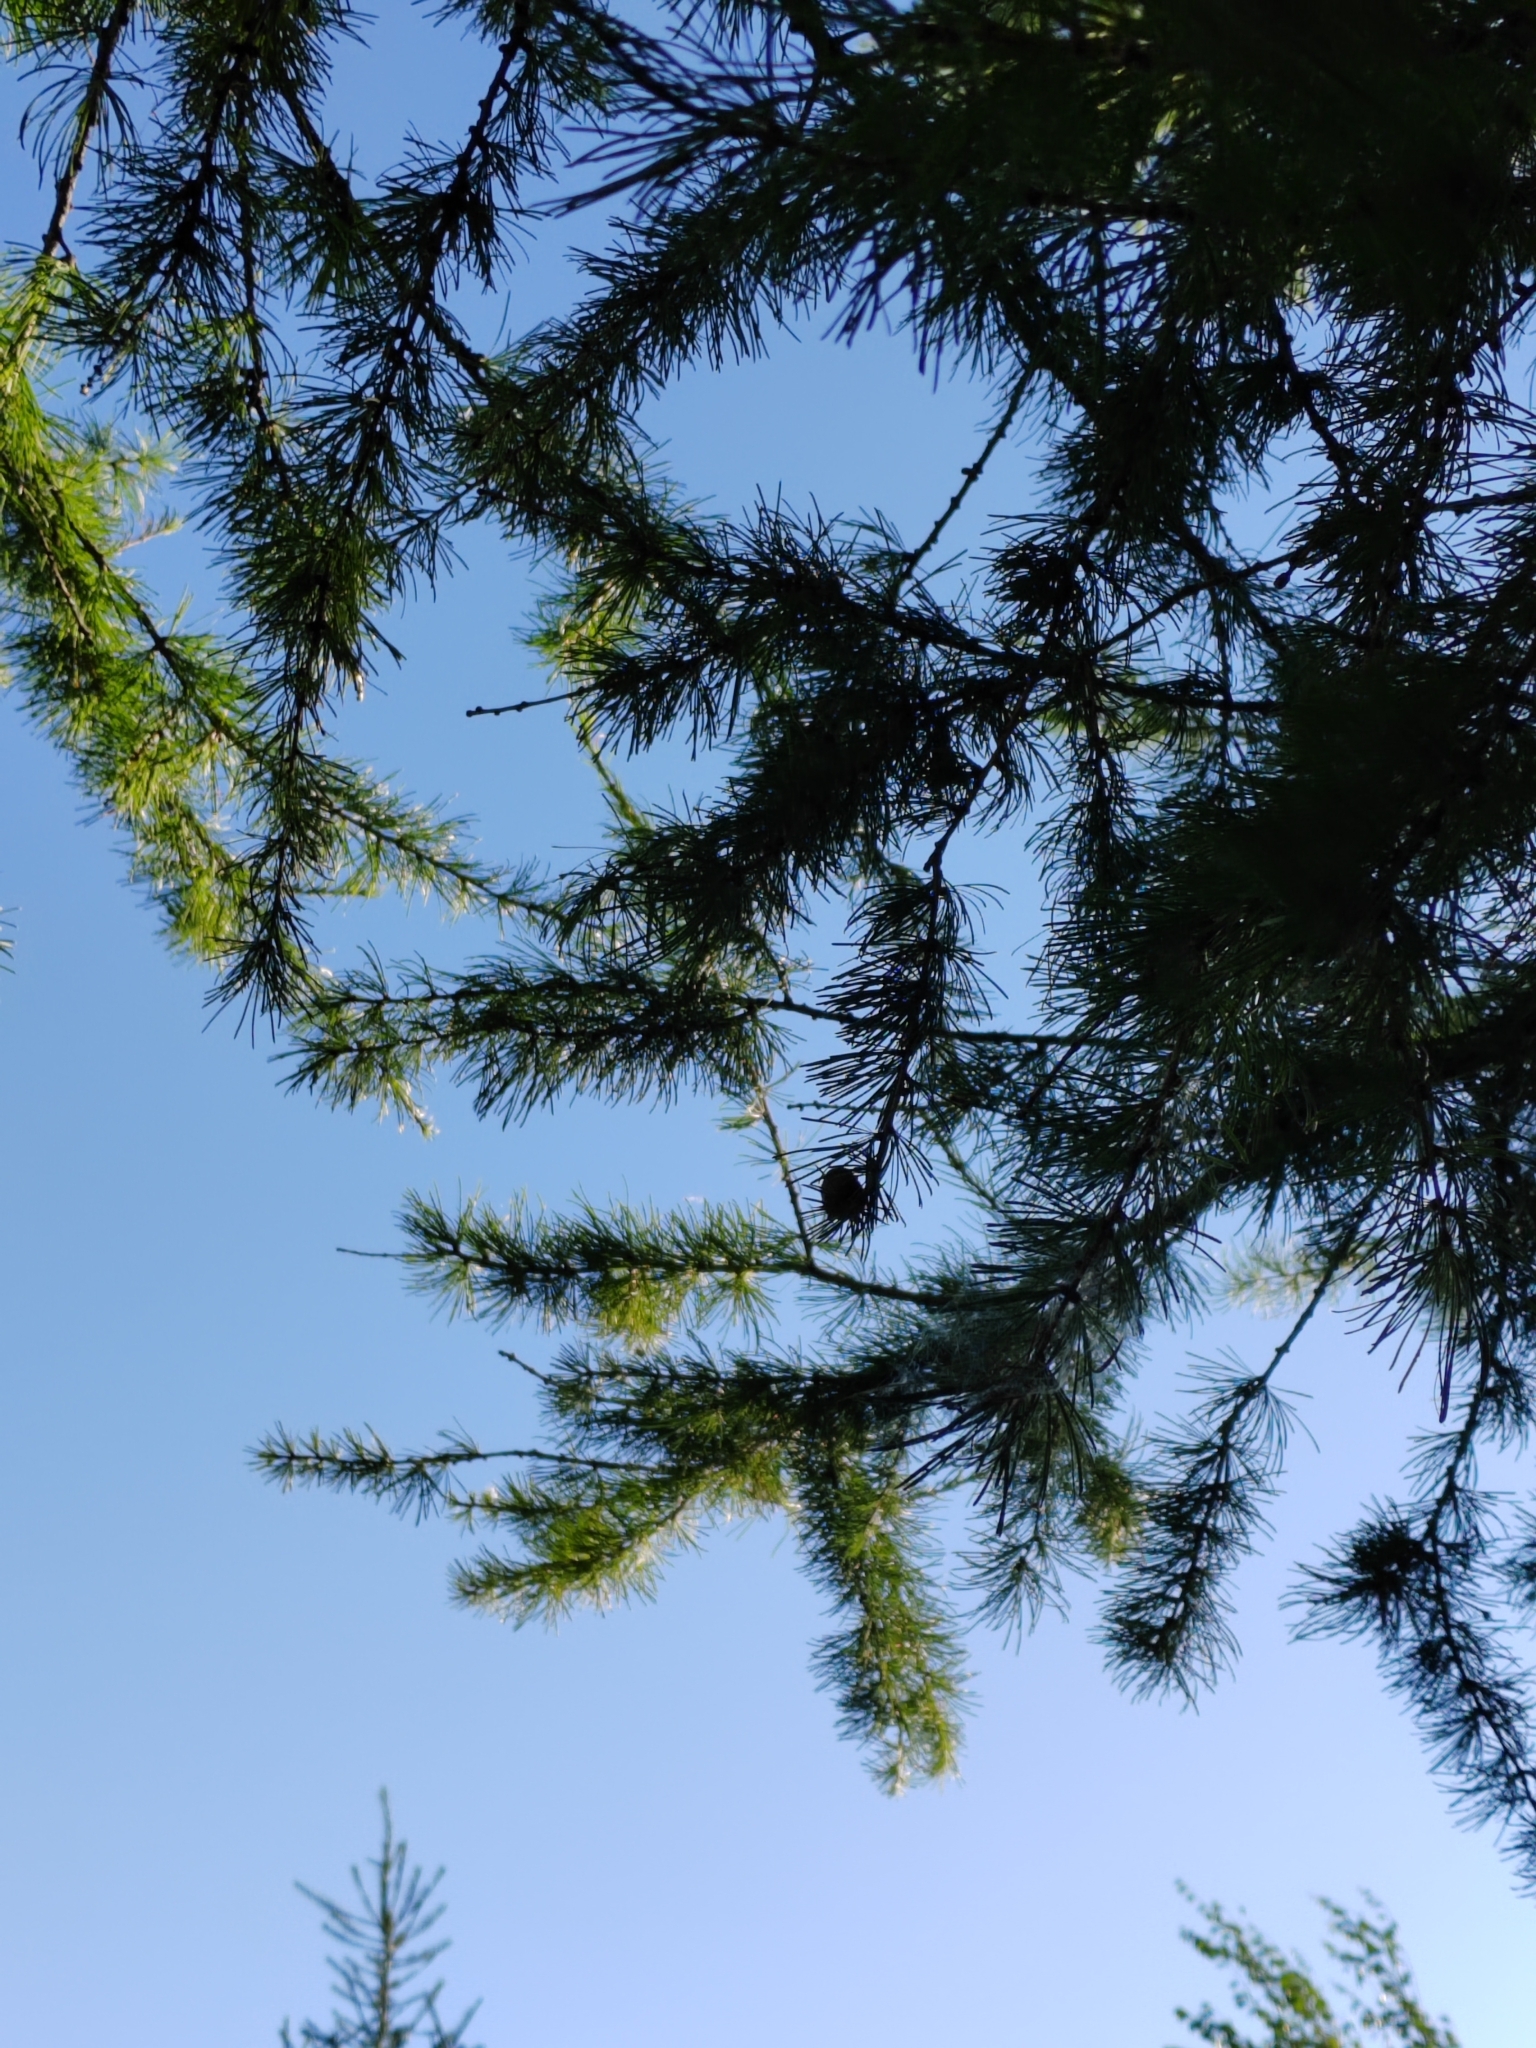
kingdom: Plantae
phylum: Tracheophyta
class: Pinopsida
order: Pinales
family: Pinaceae
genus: Larix
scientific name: Larix sibirica
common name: Siberian larch
